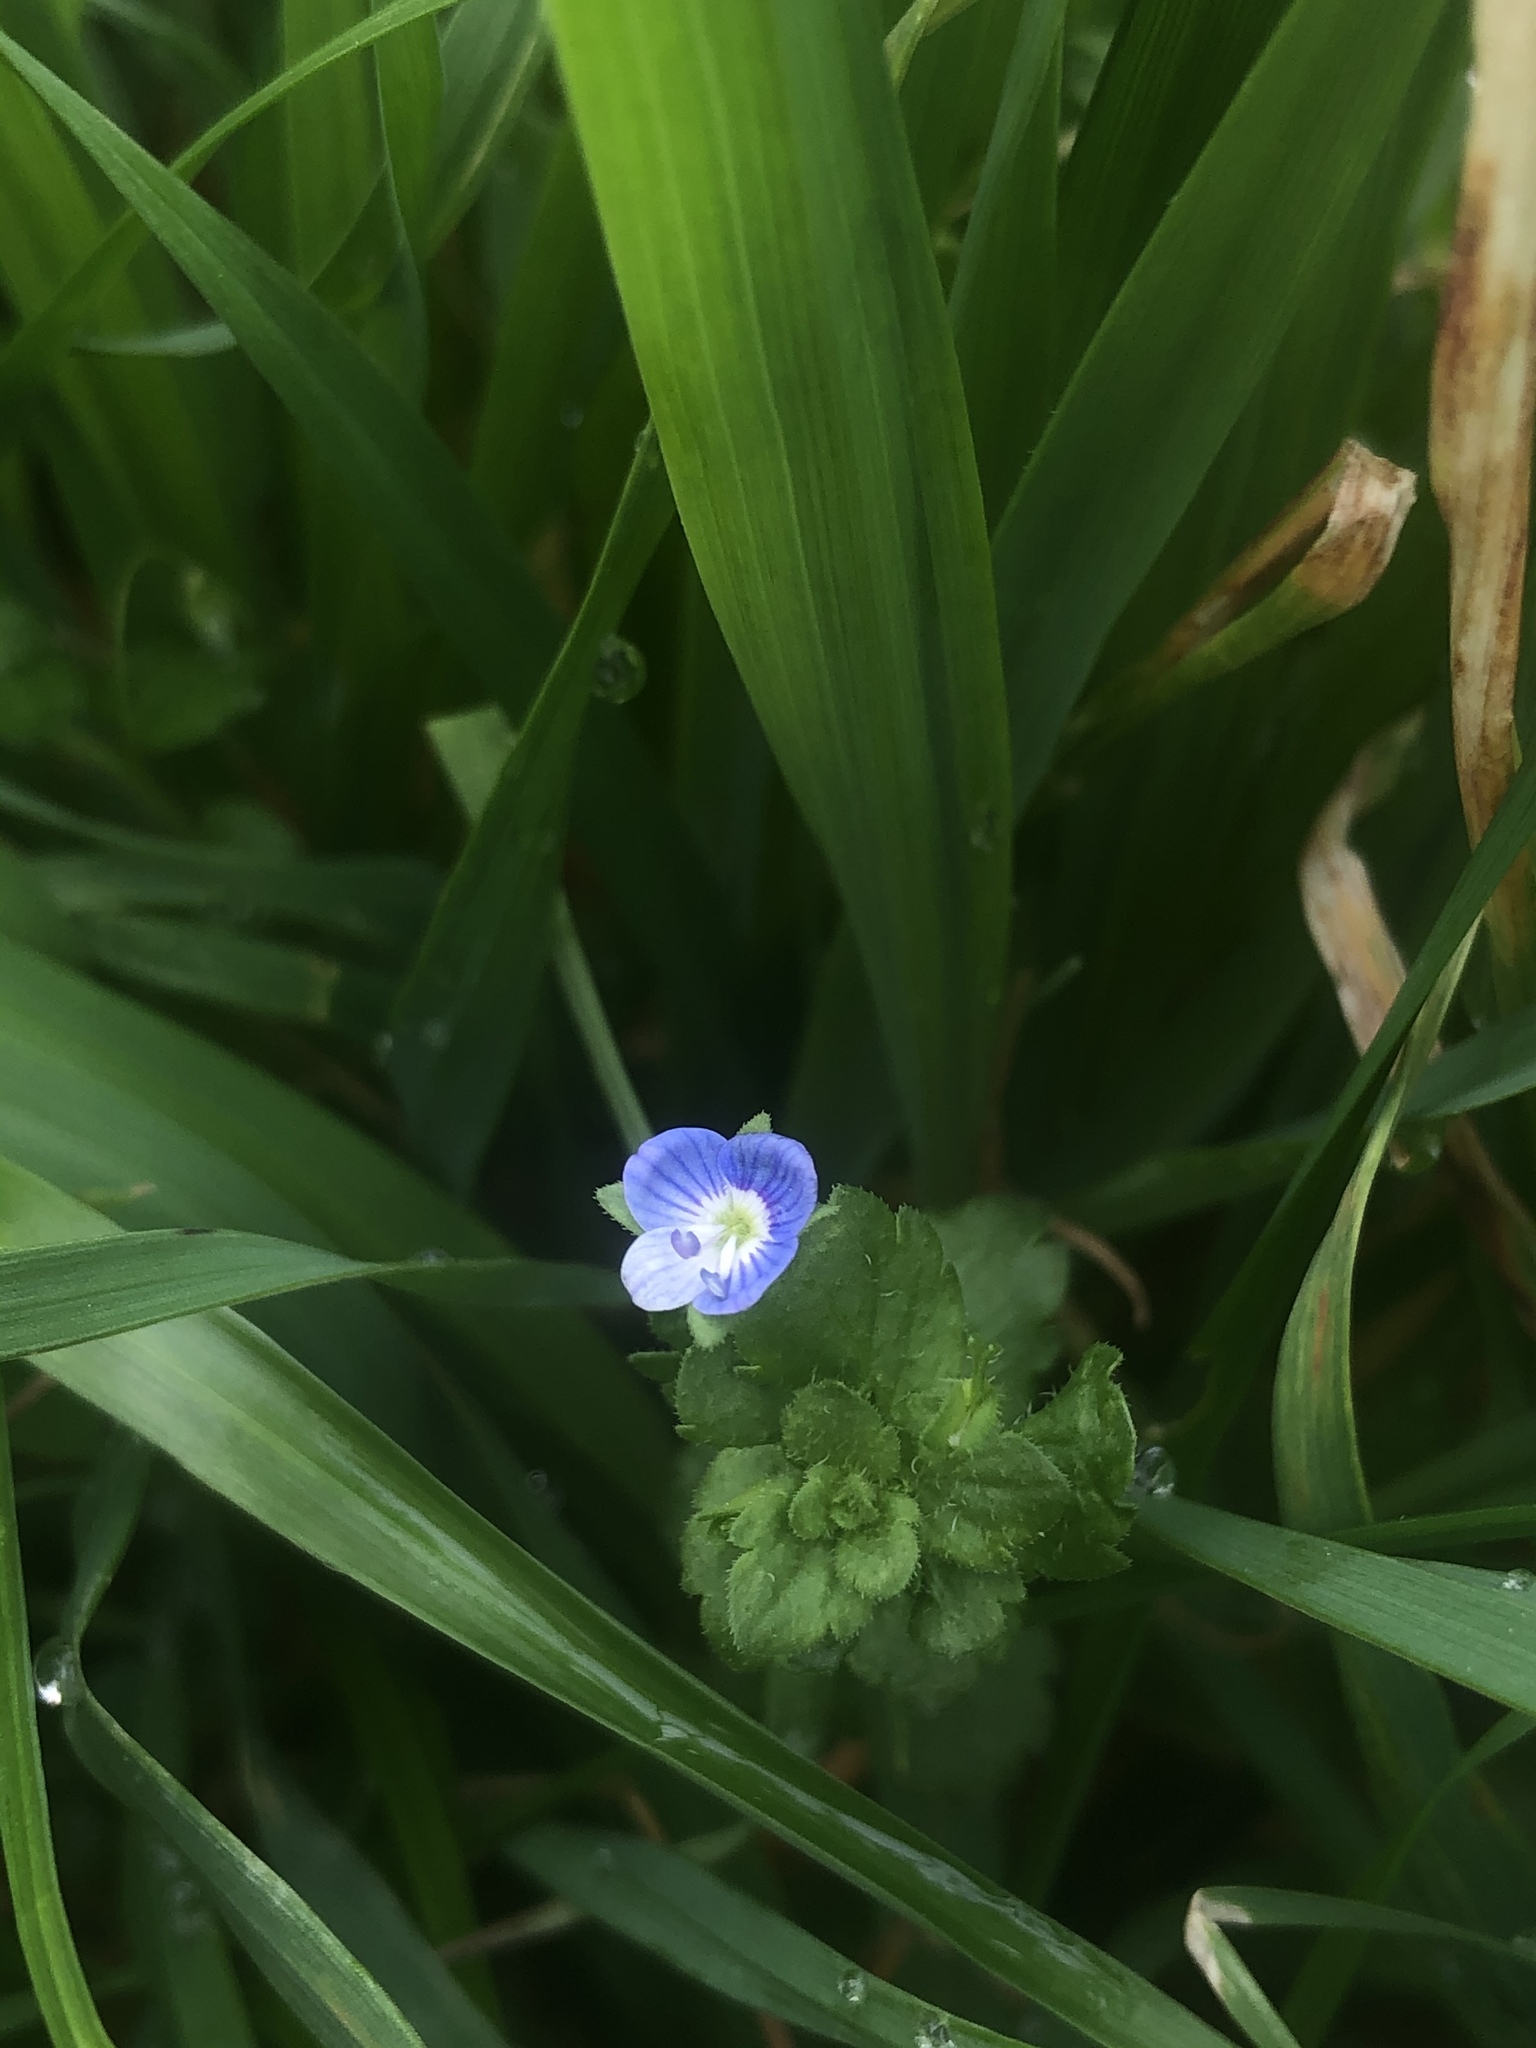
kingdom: Plantae
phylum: Tracheophyta
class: Magnoliopsida
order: Lamiales
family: Plantaginaceae
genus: Veronica
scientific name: Veronica persica
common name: Common field-speedwell
